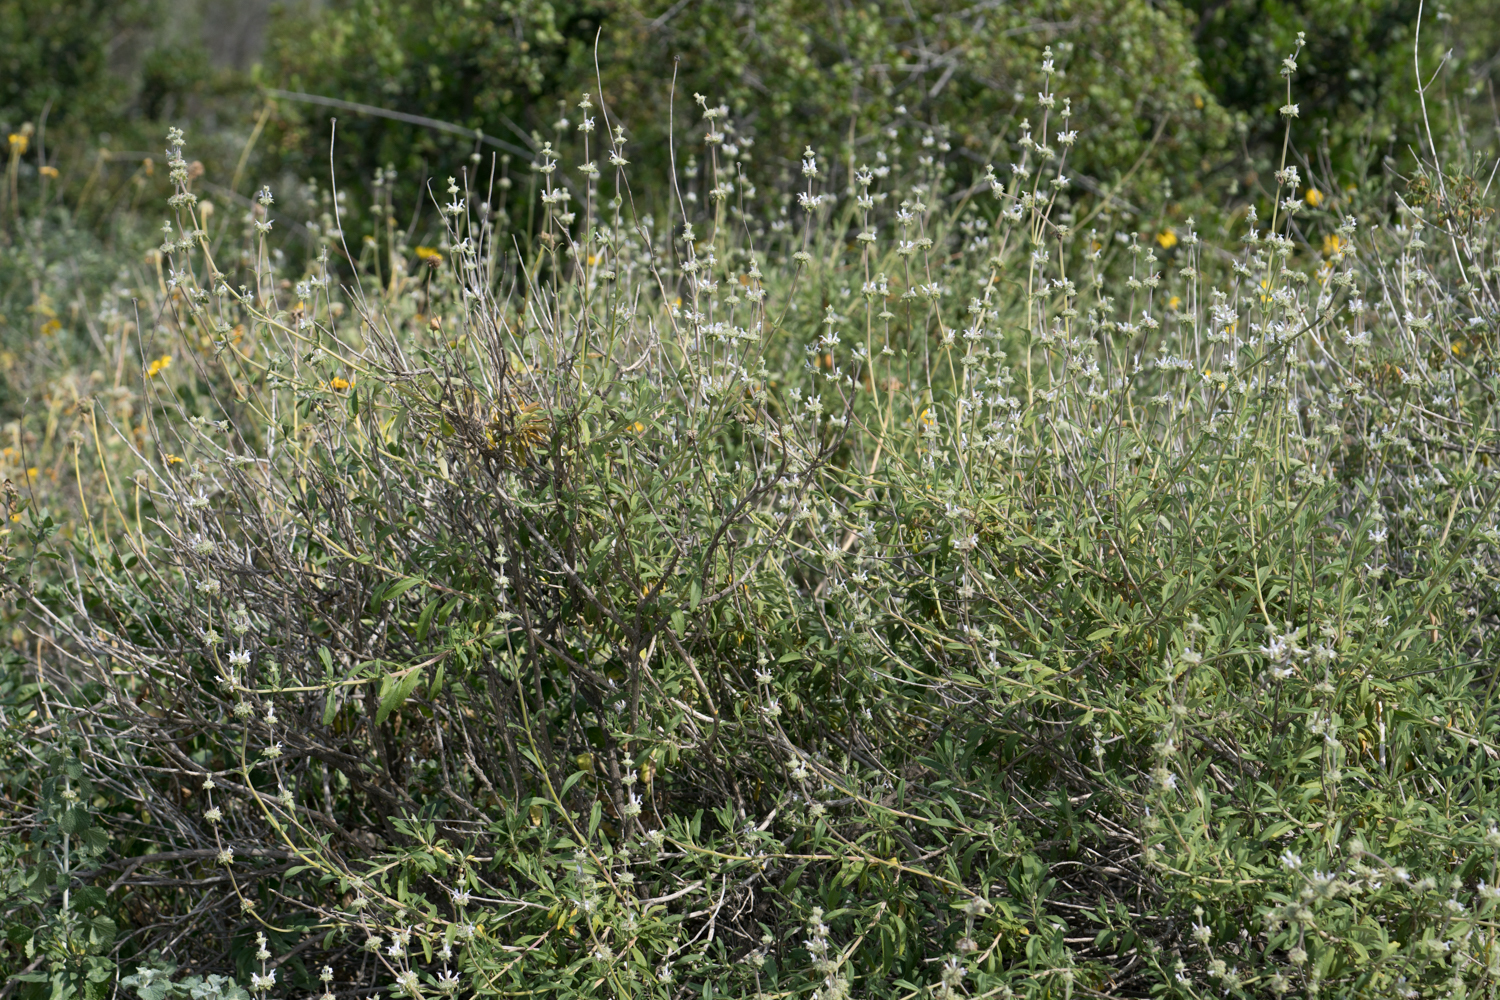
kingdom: Plantae
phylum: Tracheophyta
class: Magnoliopsida
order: Lamiales
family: Lamiaceae
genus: Salvia
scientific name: Salvia mellifera
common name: Black sage
